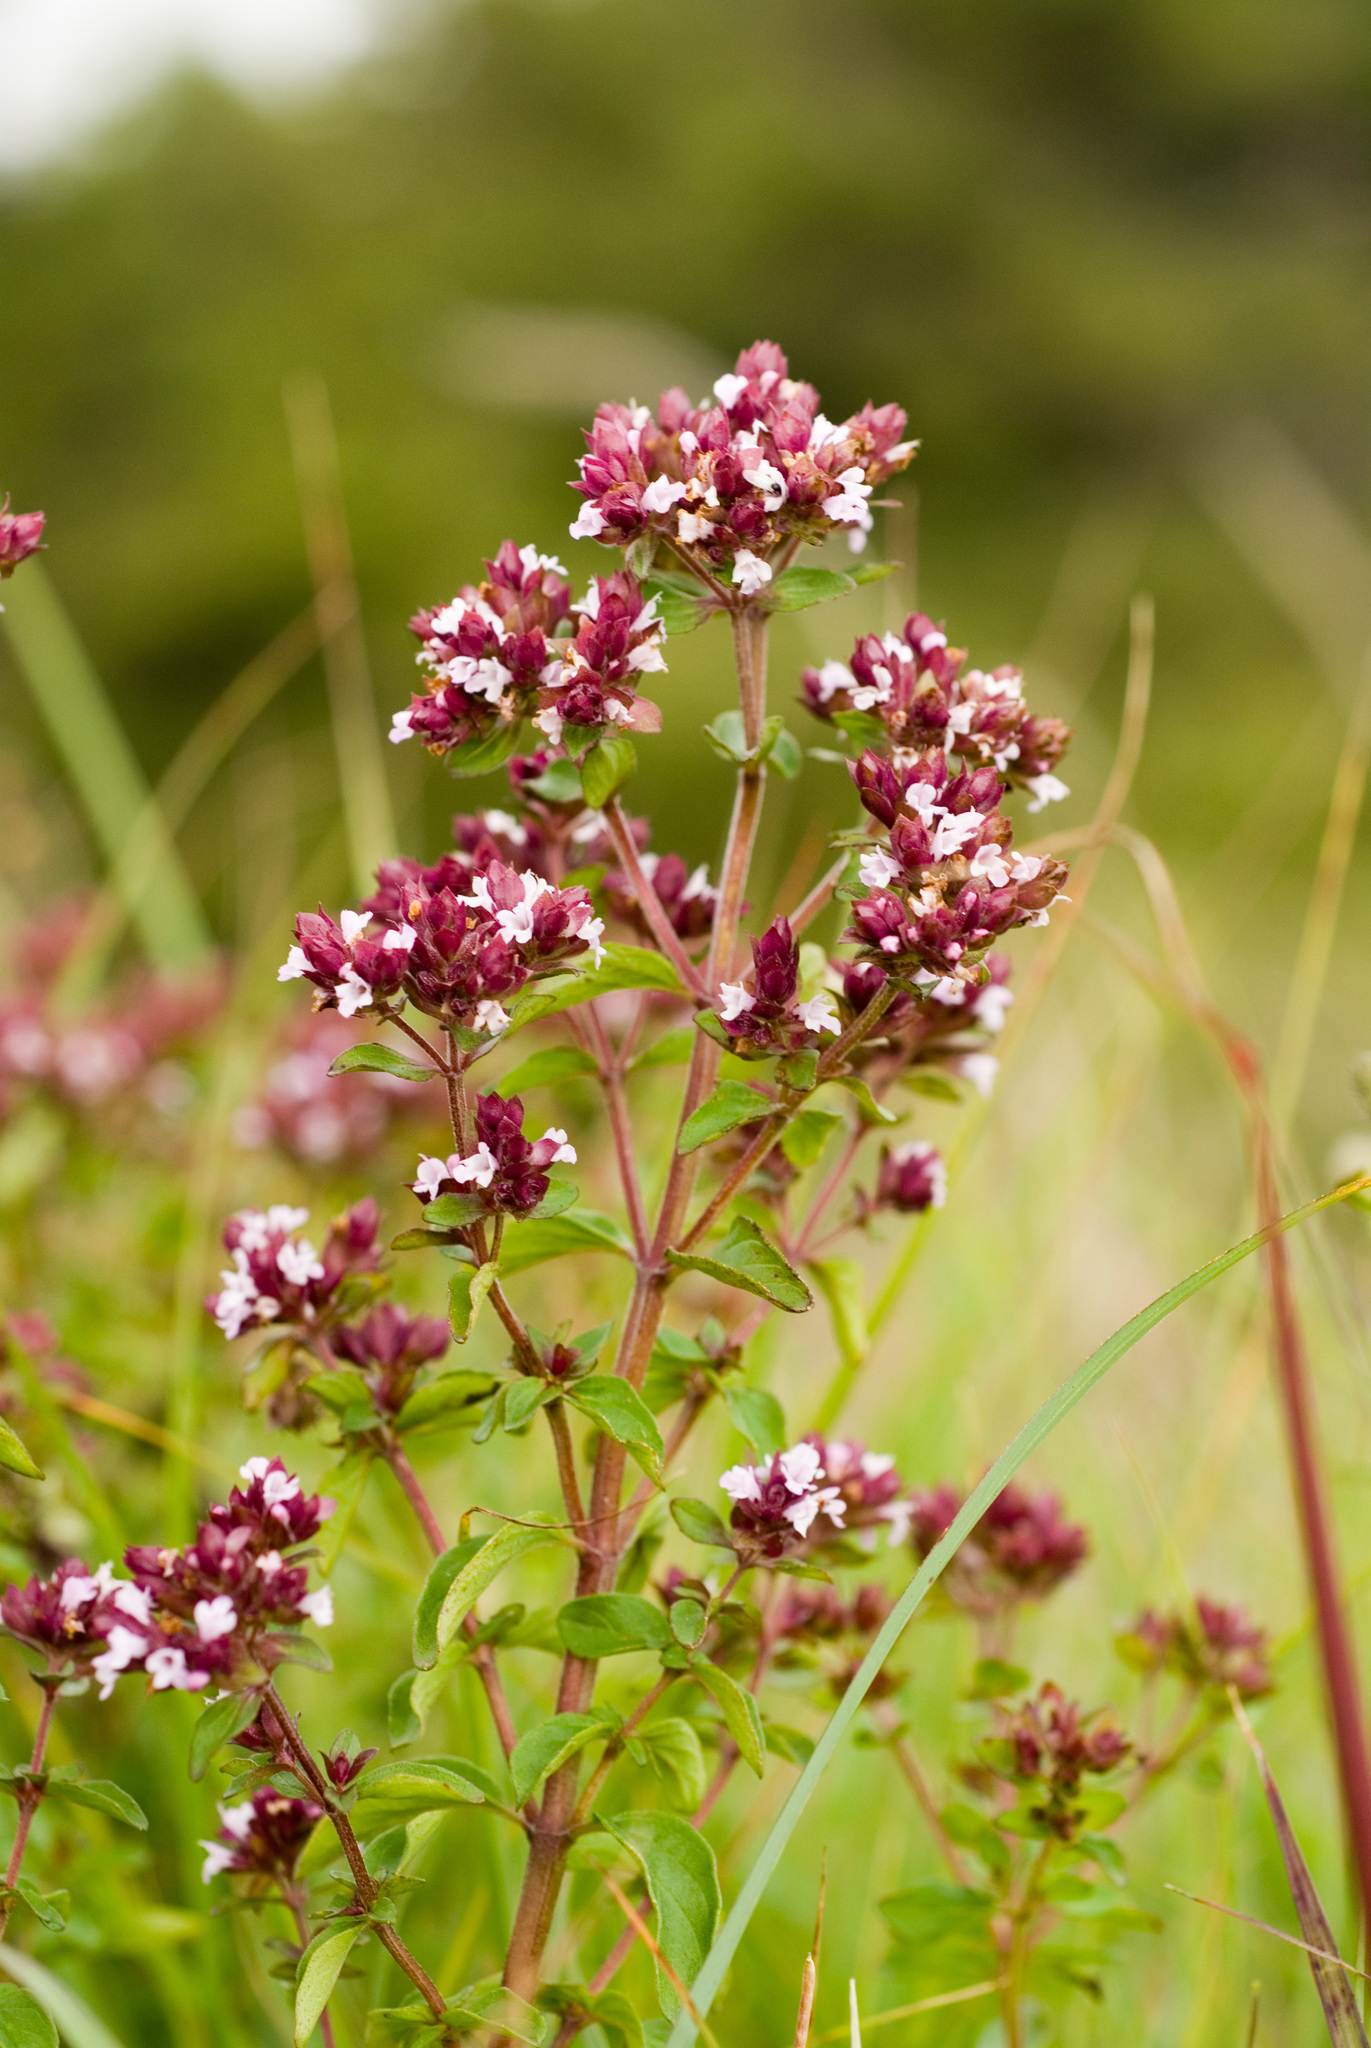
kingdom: Plantae
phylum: Tracheophyta
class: Magnoliopsida
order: Lamiales
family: Lamiaceae
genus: Origanum
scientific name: Origanum vulgare
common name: Wild marjoram
